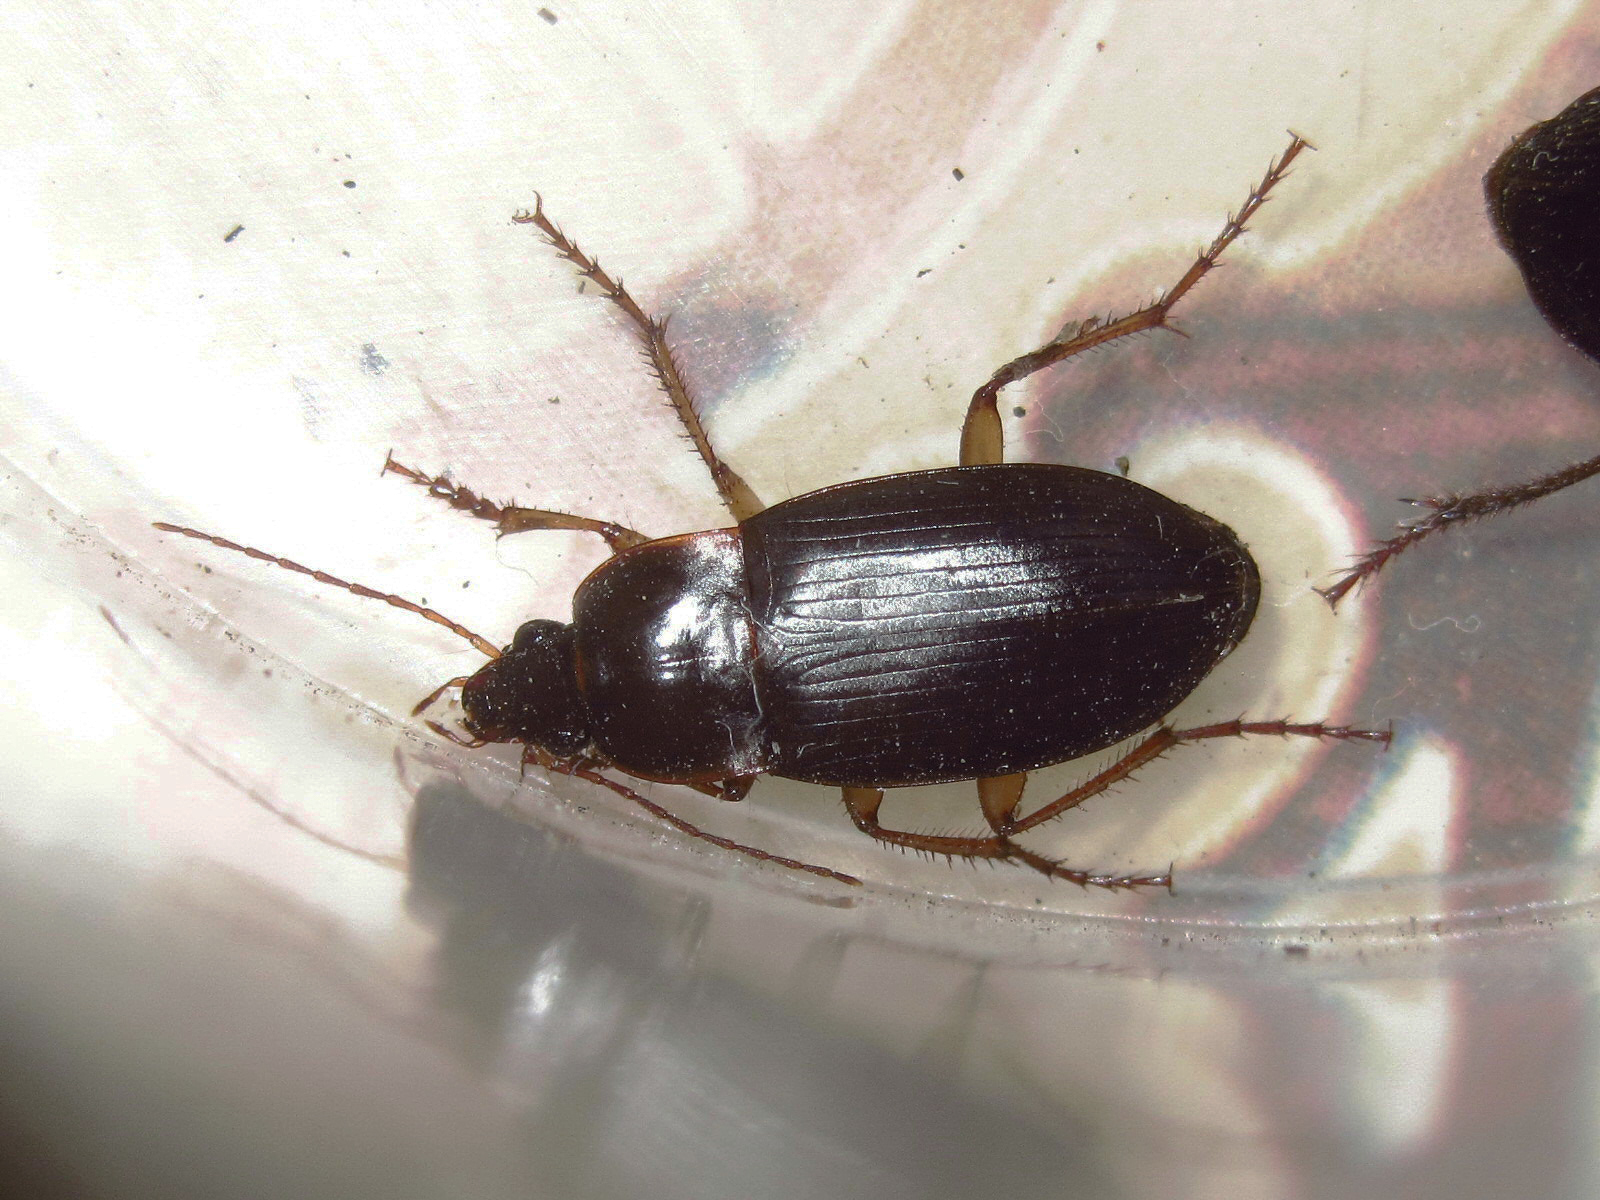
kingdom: Animalia
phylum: Arthropoda
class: Insecta
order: Coleoptera
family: Carabidae
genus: Calathus
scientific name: Calathus ambiguus
